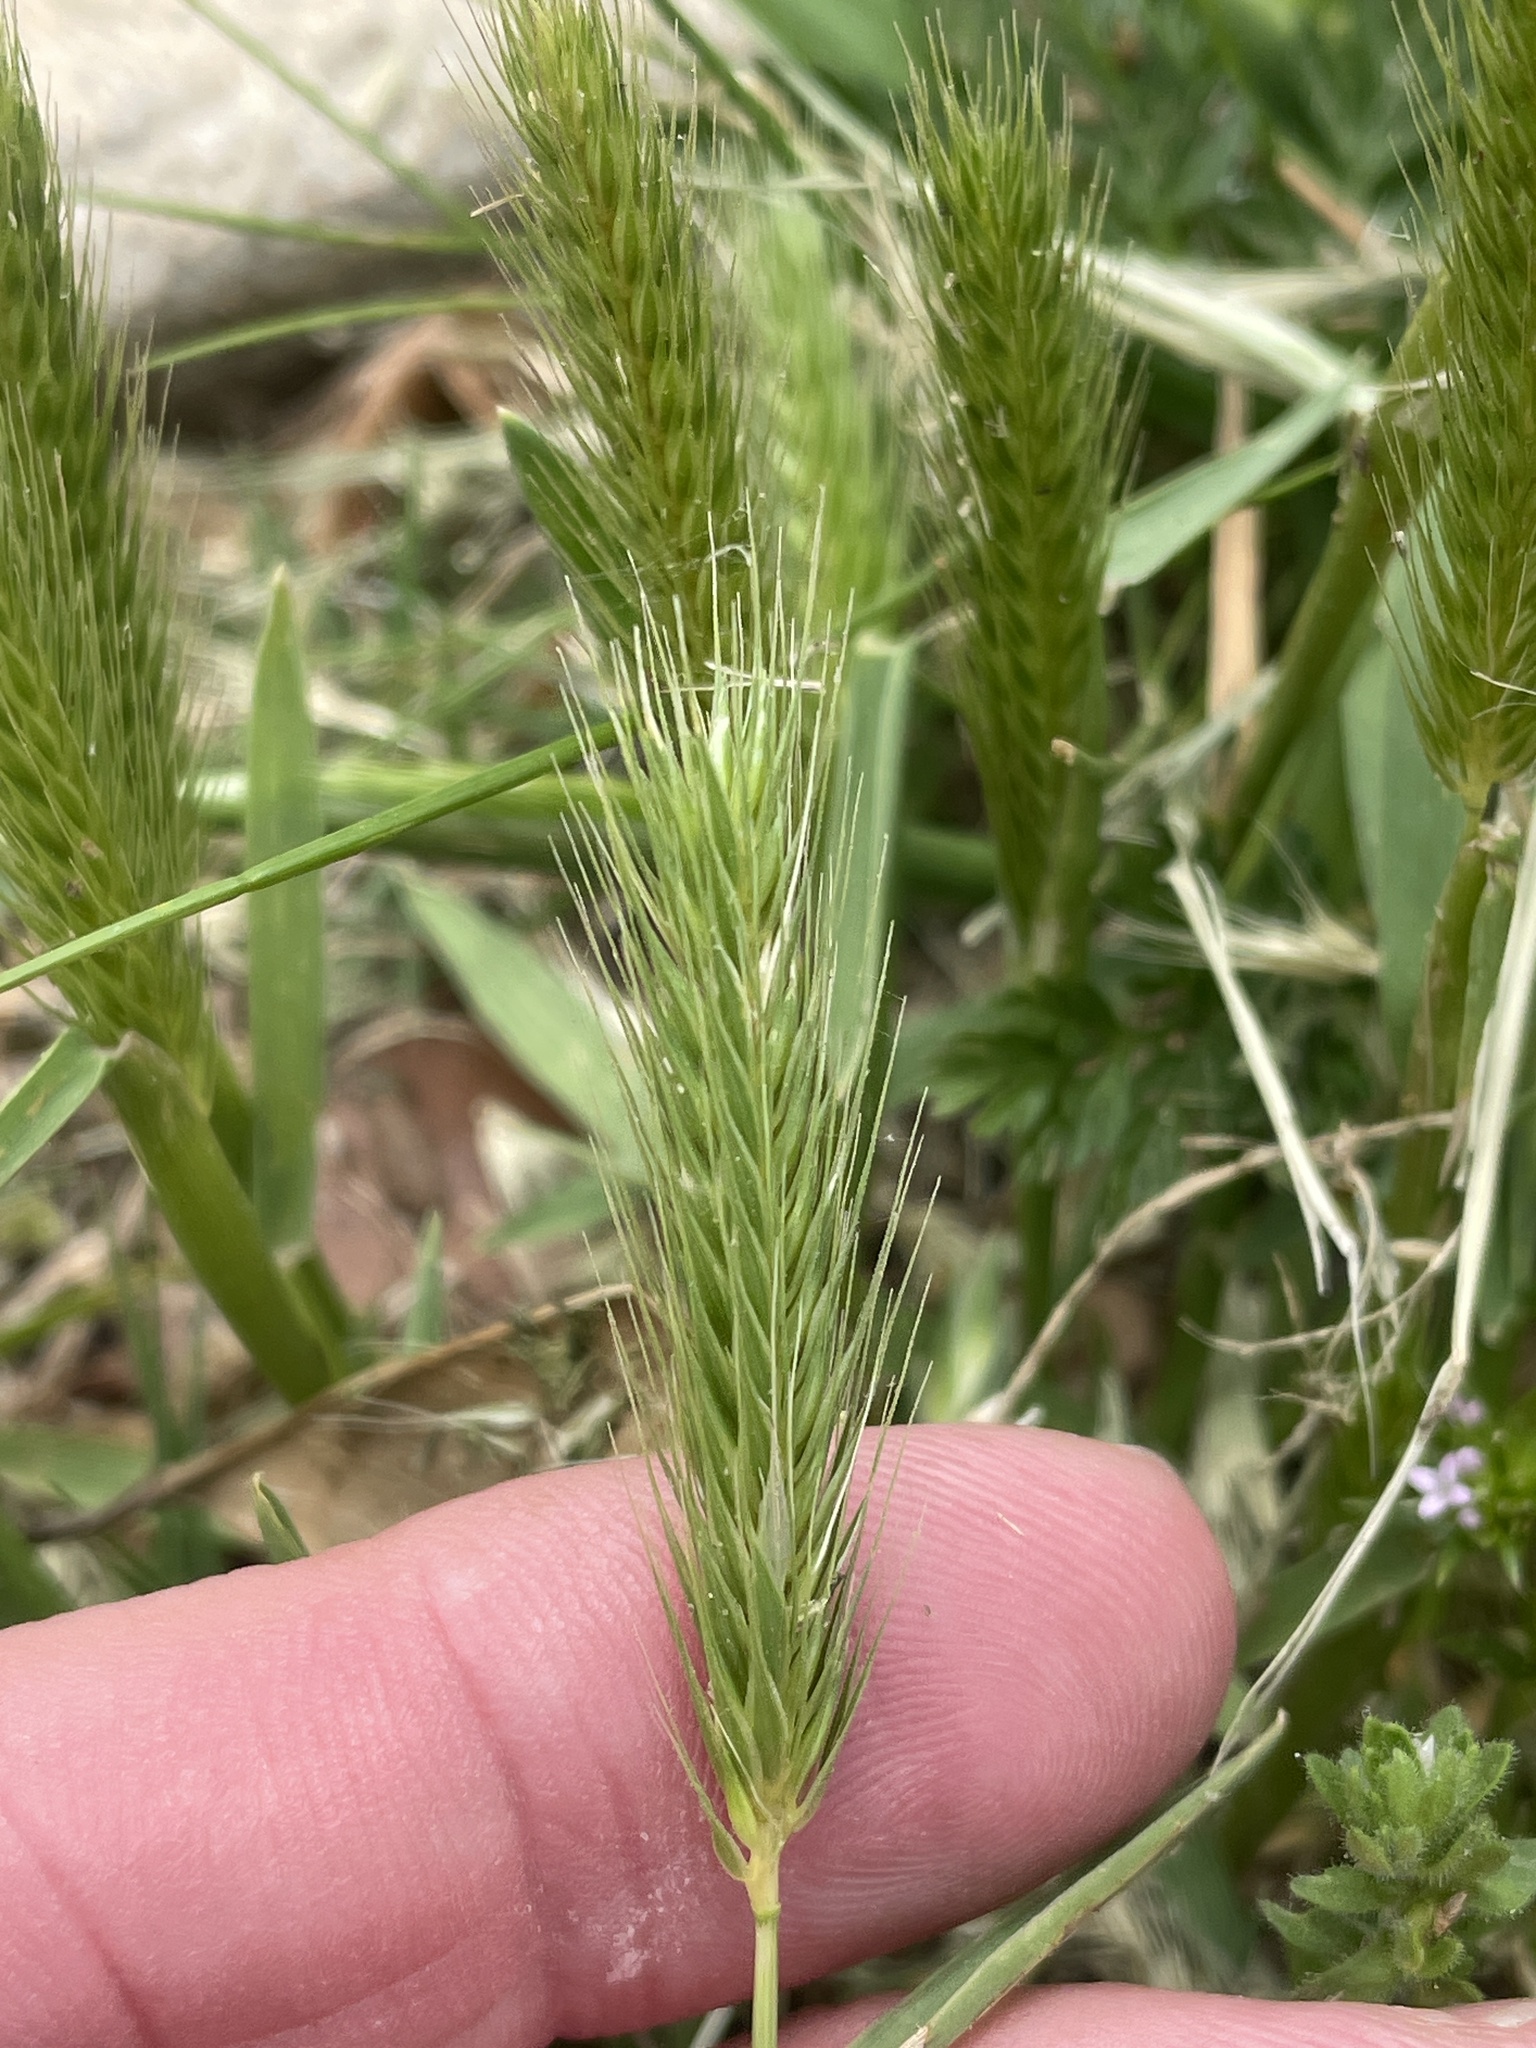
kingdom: Plantae
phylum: Tracheophyta
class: Liliopsida
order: Poales
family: Poaceae
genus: Hordeum
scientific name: Hordeum pusillum
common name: Little barley
